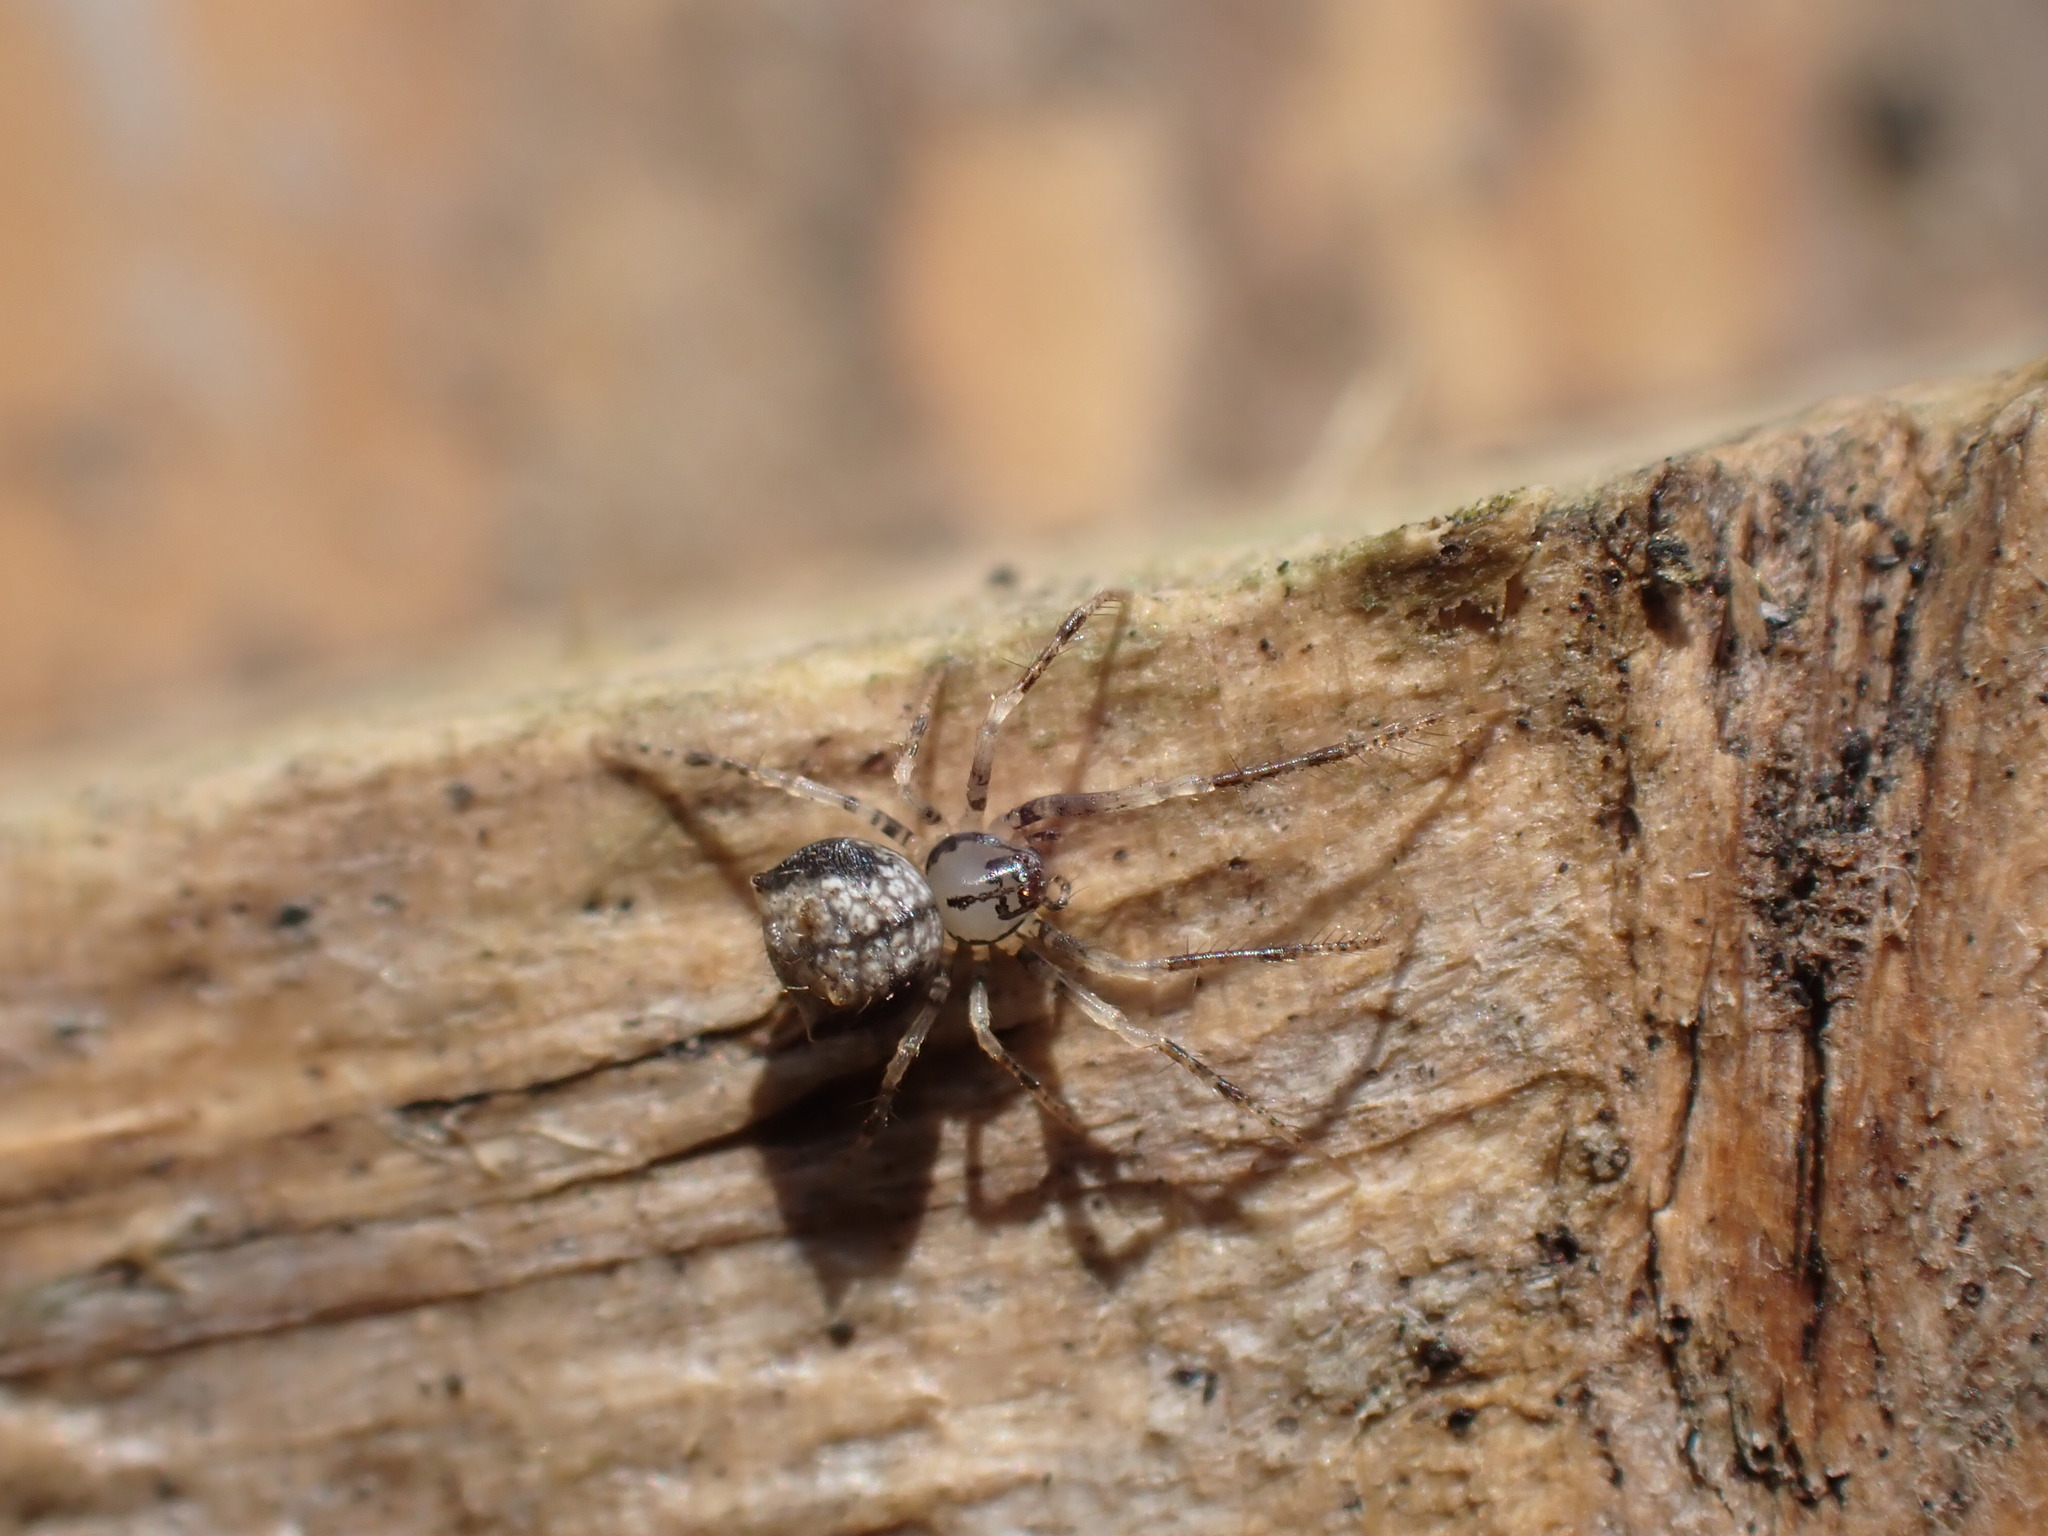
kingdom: Animalia
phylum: Arthropoda
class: Arachnida
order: Araneae
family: Mimetidae
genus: Ero
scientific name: Ero aphana
